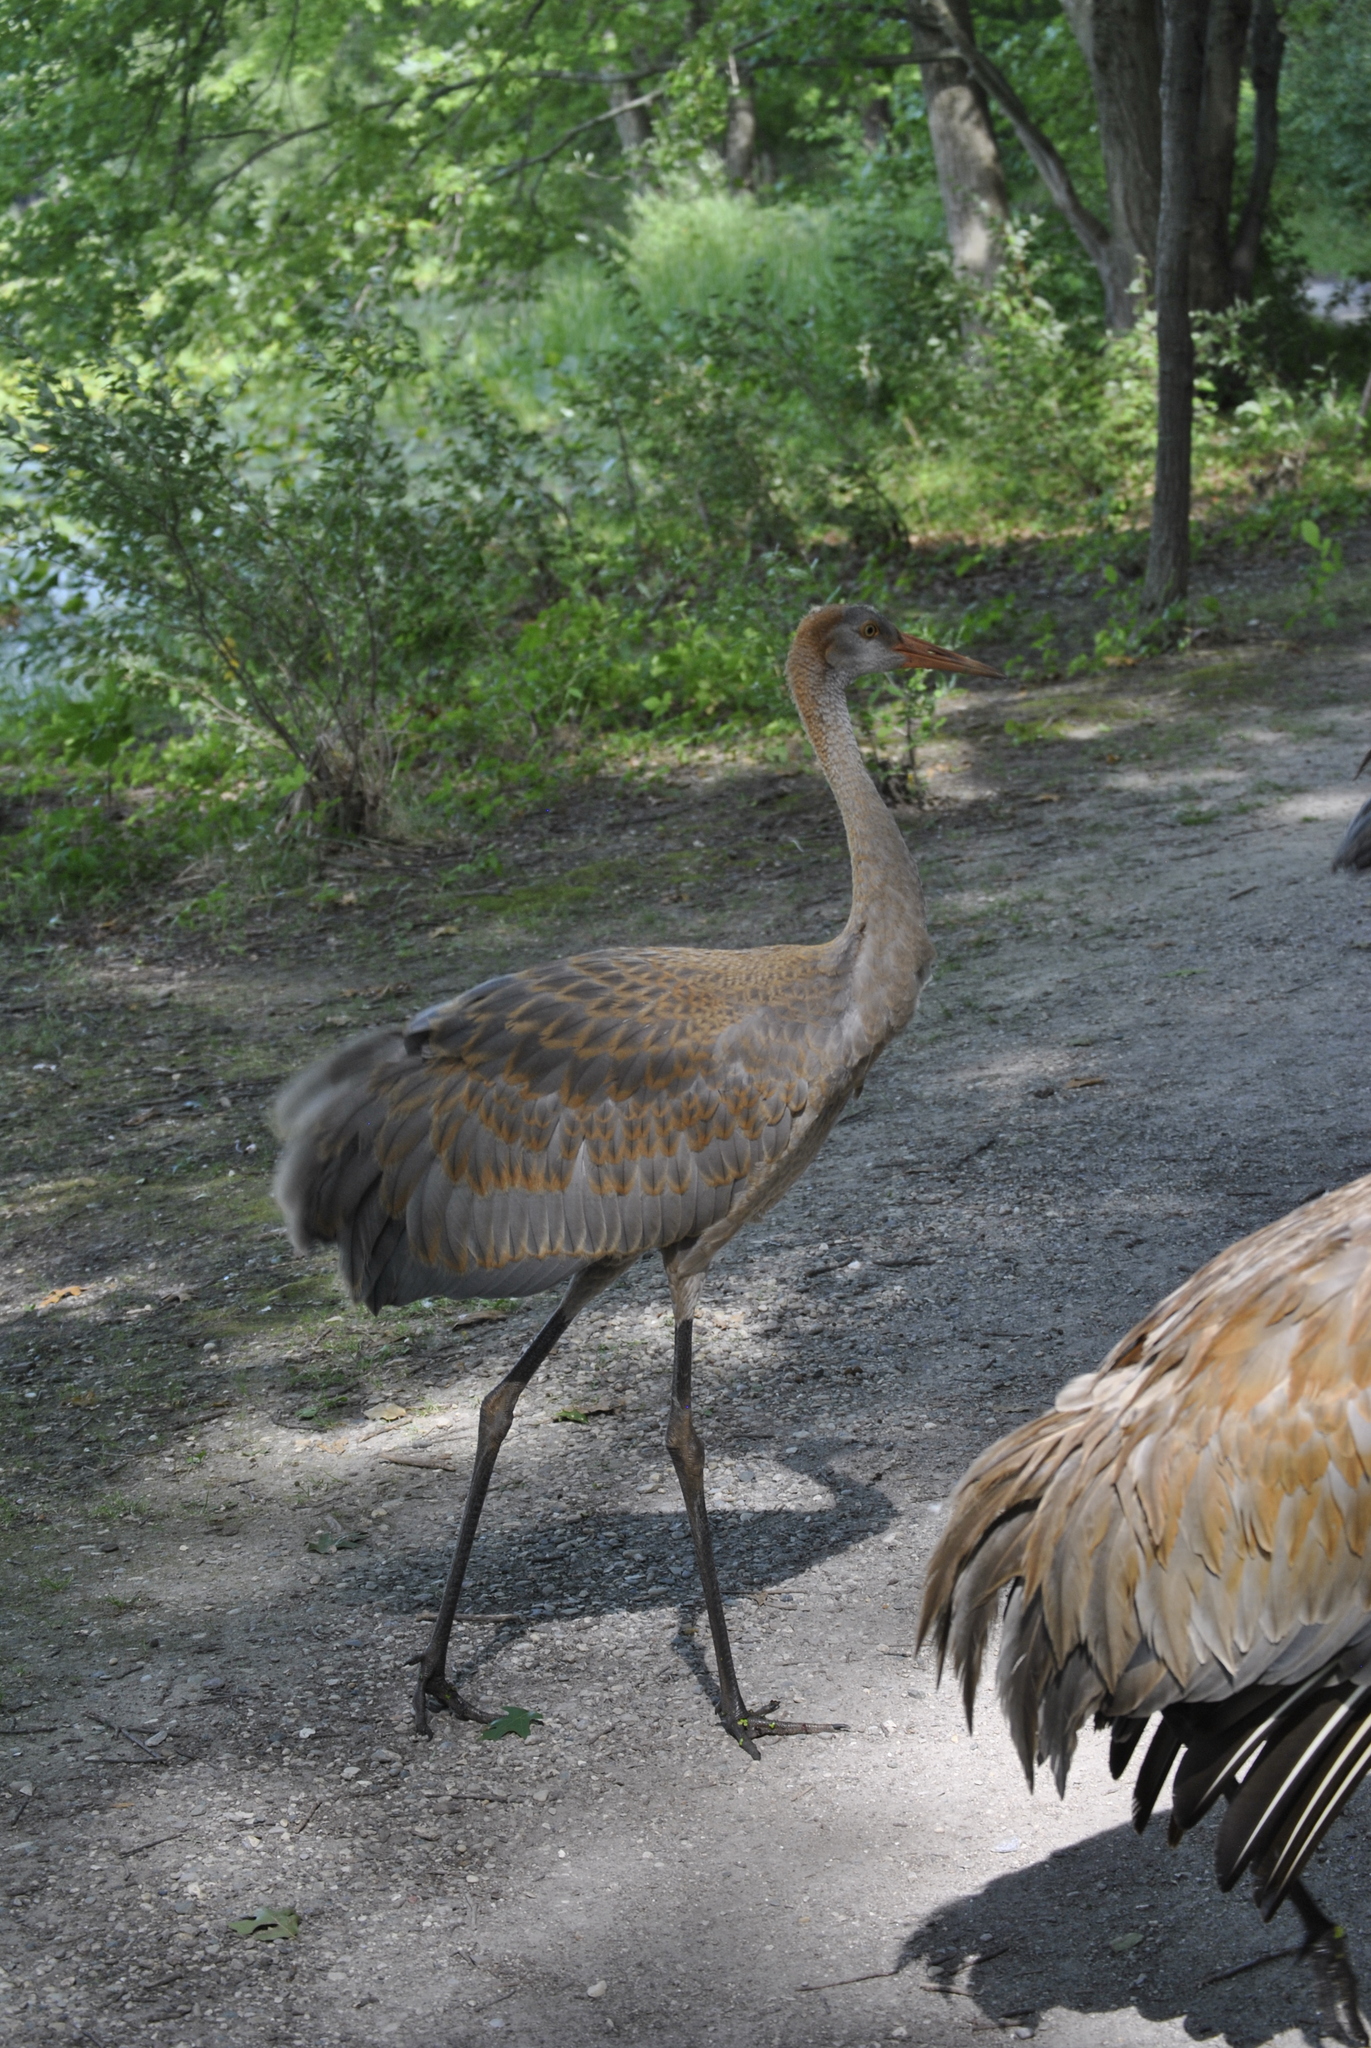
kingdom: Animalia
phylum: Chordata
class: Aves
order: Gruiformes
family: Gruidae
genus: Grus
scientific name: Grus canadensis
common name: Sandhill crane
